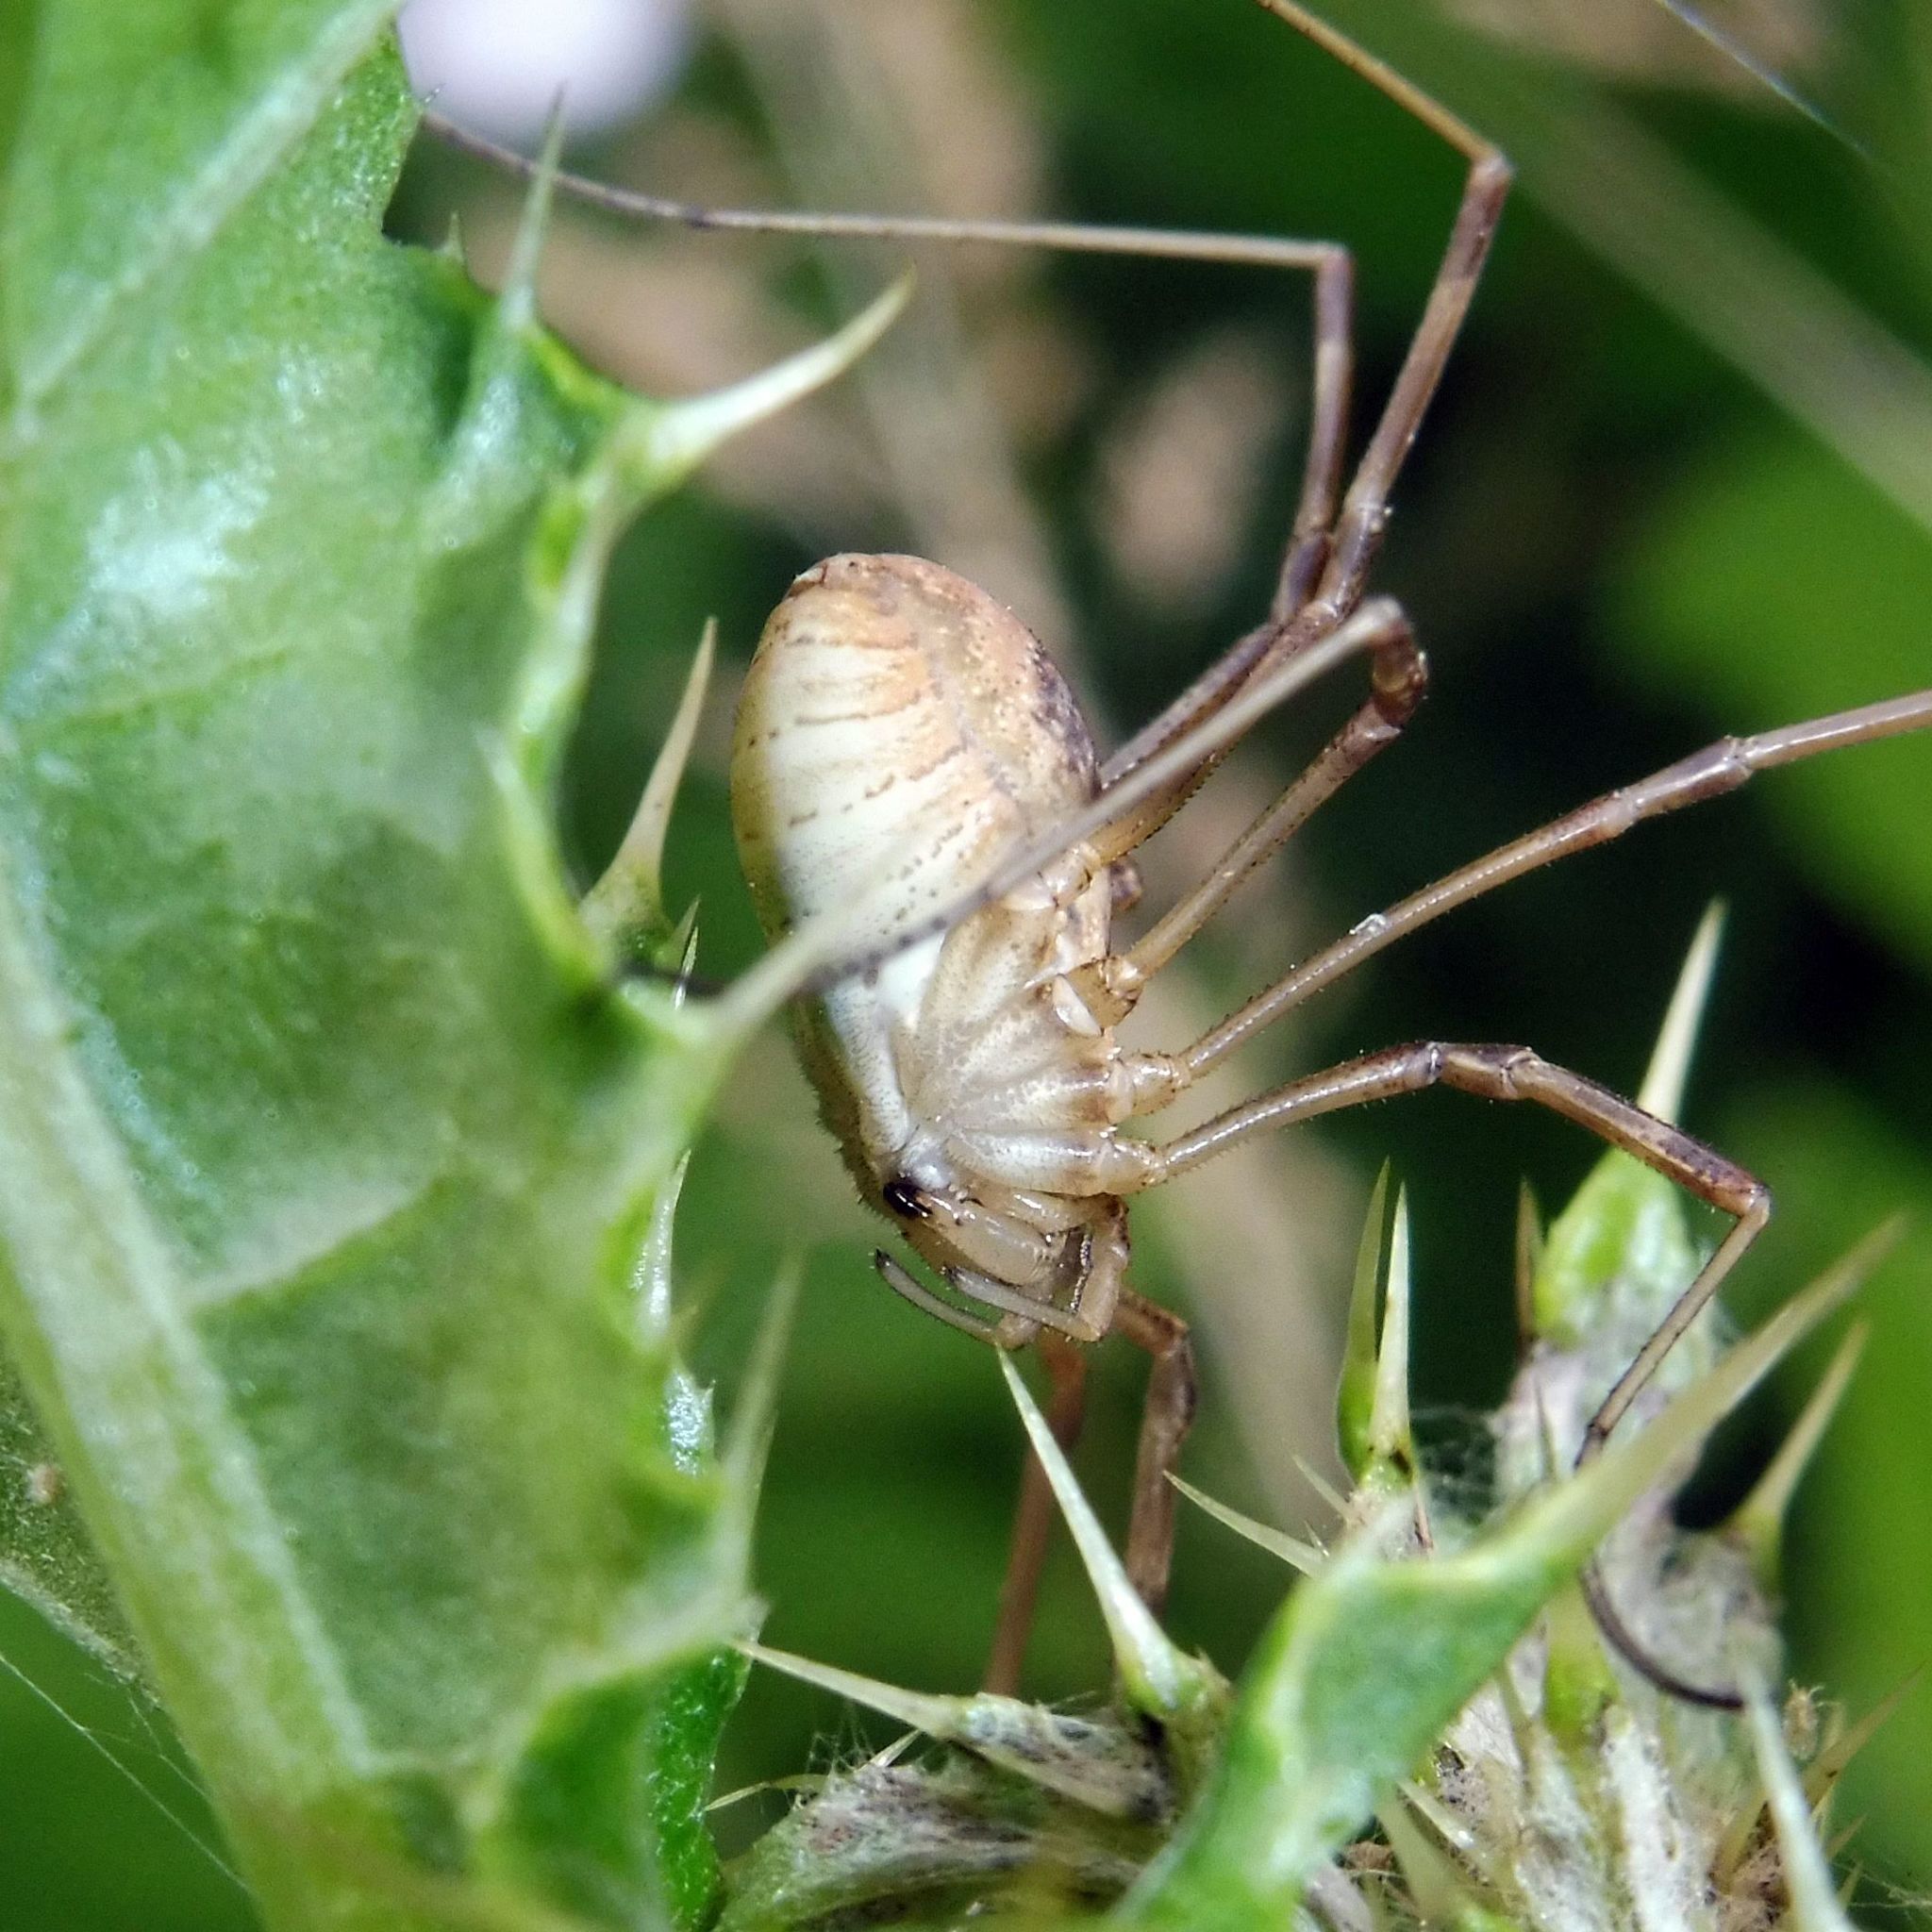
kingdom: Animalia
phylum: Arthropoda
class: Arachnida
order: Opiliones
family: Phalangiidae
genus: Mitopus
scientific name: Mitopus morio
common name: Saddleback harvestman
